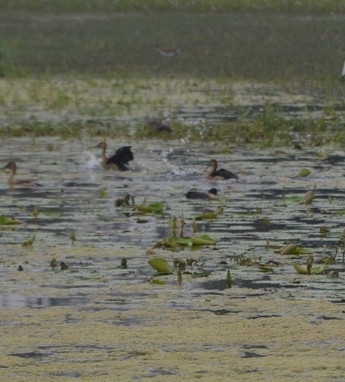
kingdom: Animalia
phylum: Chordata
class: Aves
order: Anseriformes
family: Anatidae
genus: Dendrocygna
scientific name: Dendrocygna javanica
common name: Lesser whistling-duck
